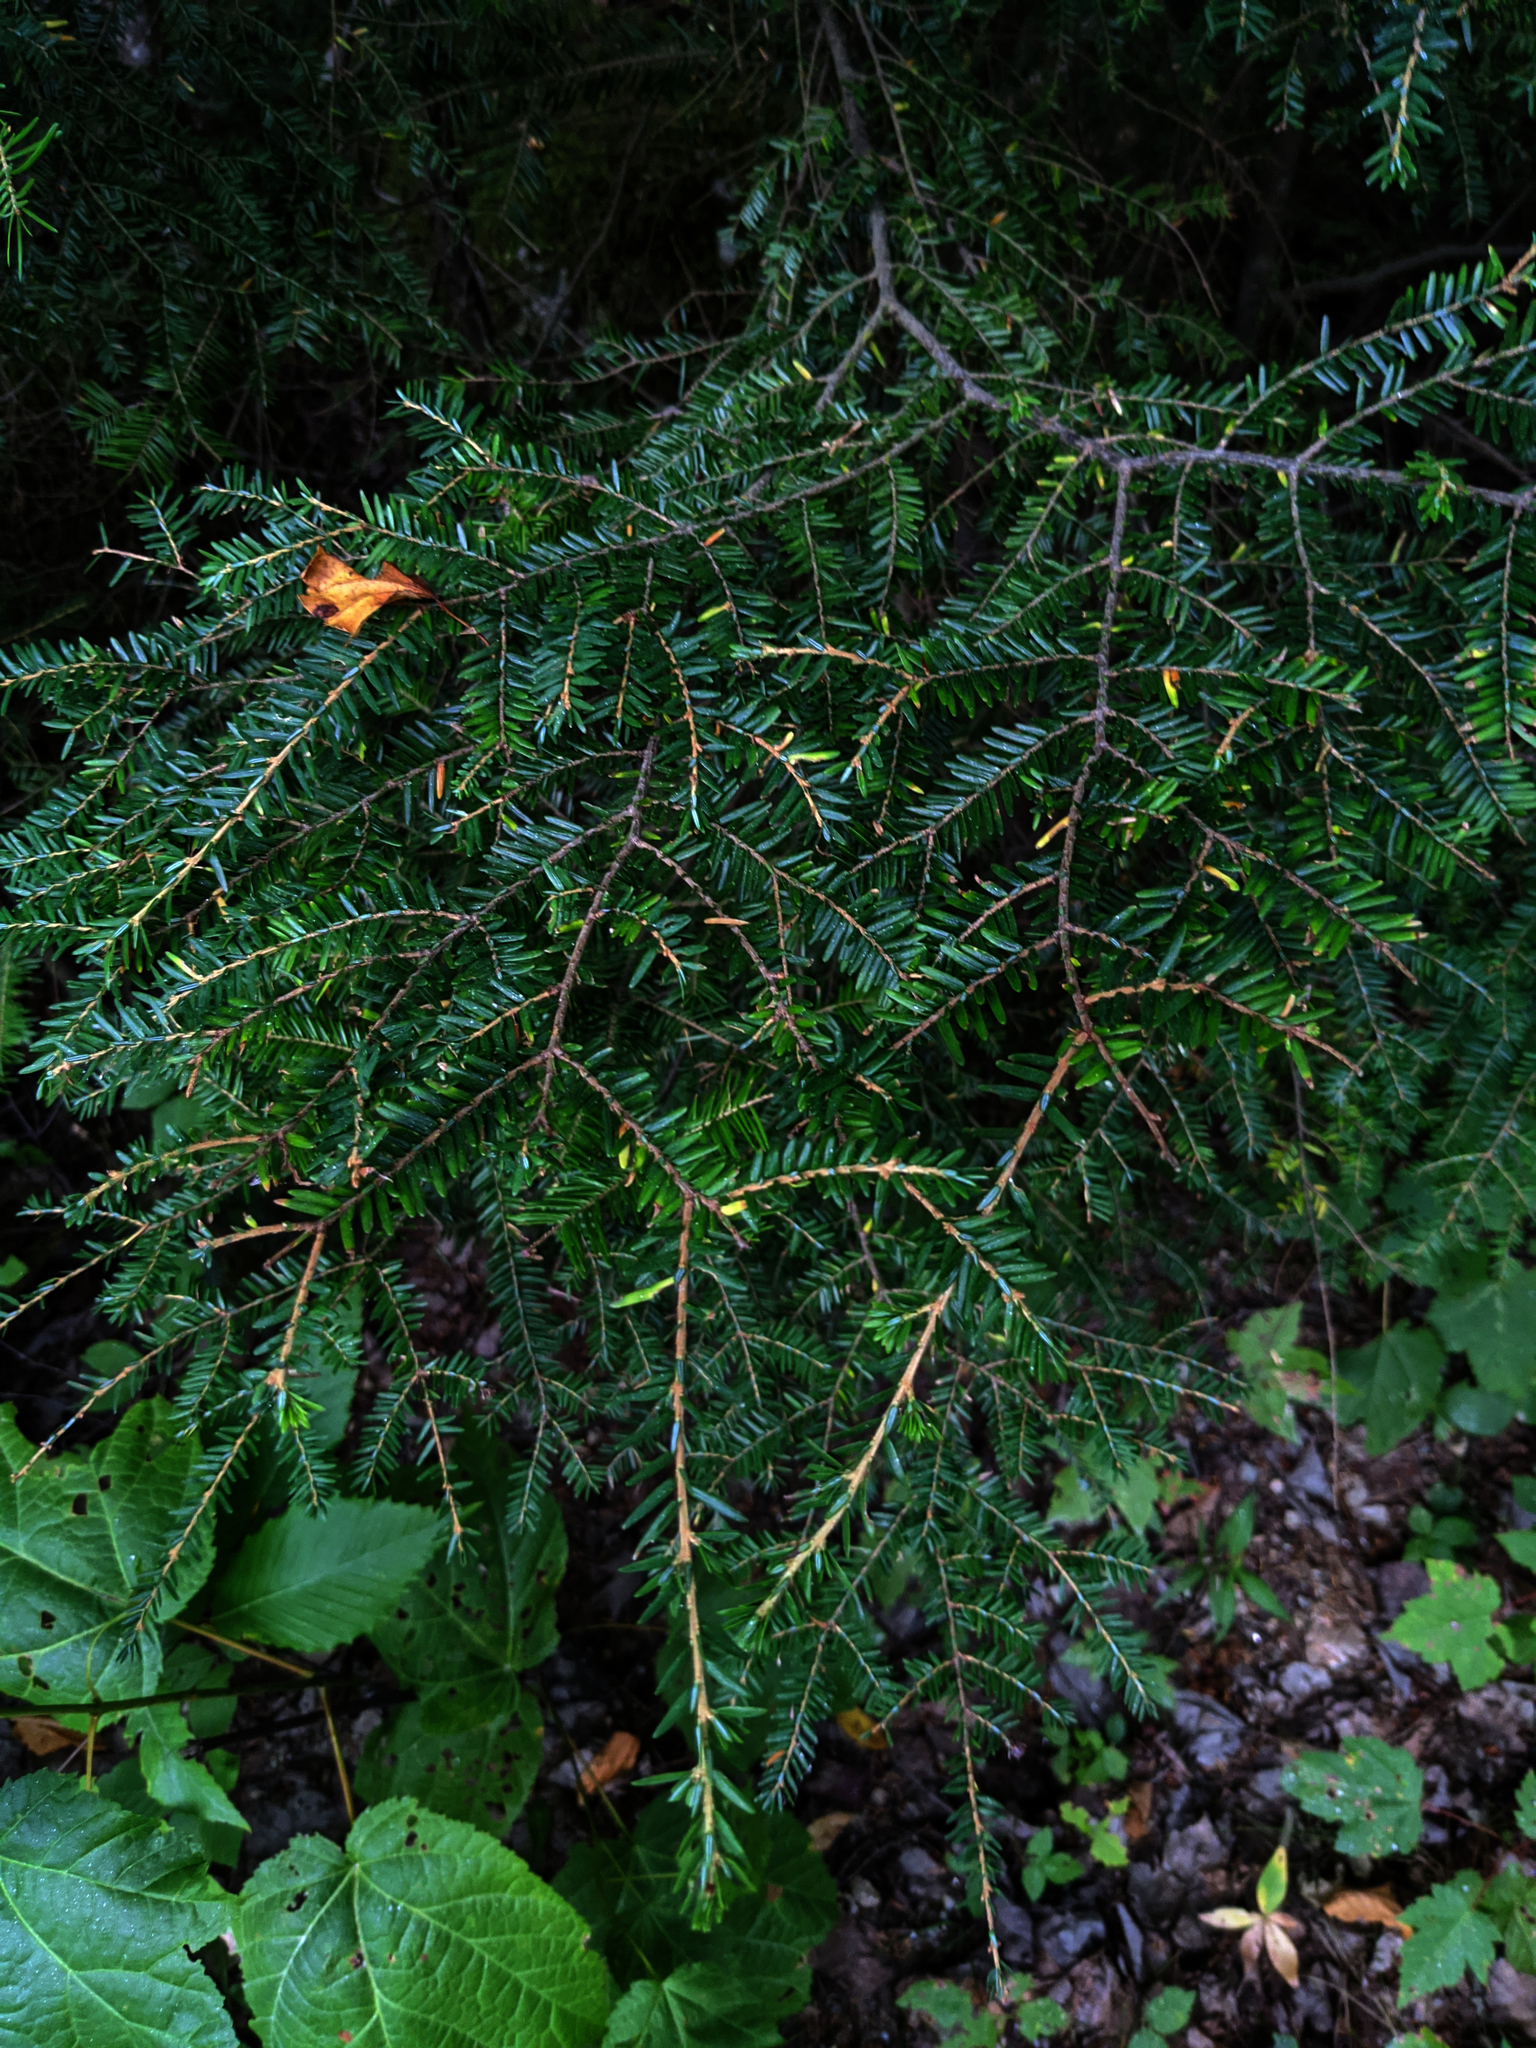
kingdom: Plantae
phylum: Tracheophyta
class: Pinopsida
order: Pinales
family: Pinaceae
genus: Tsuga
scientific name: Tsuga canadensis
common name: Eastern hemlock
